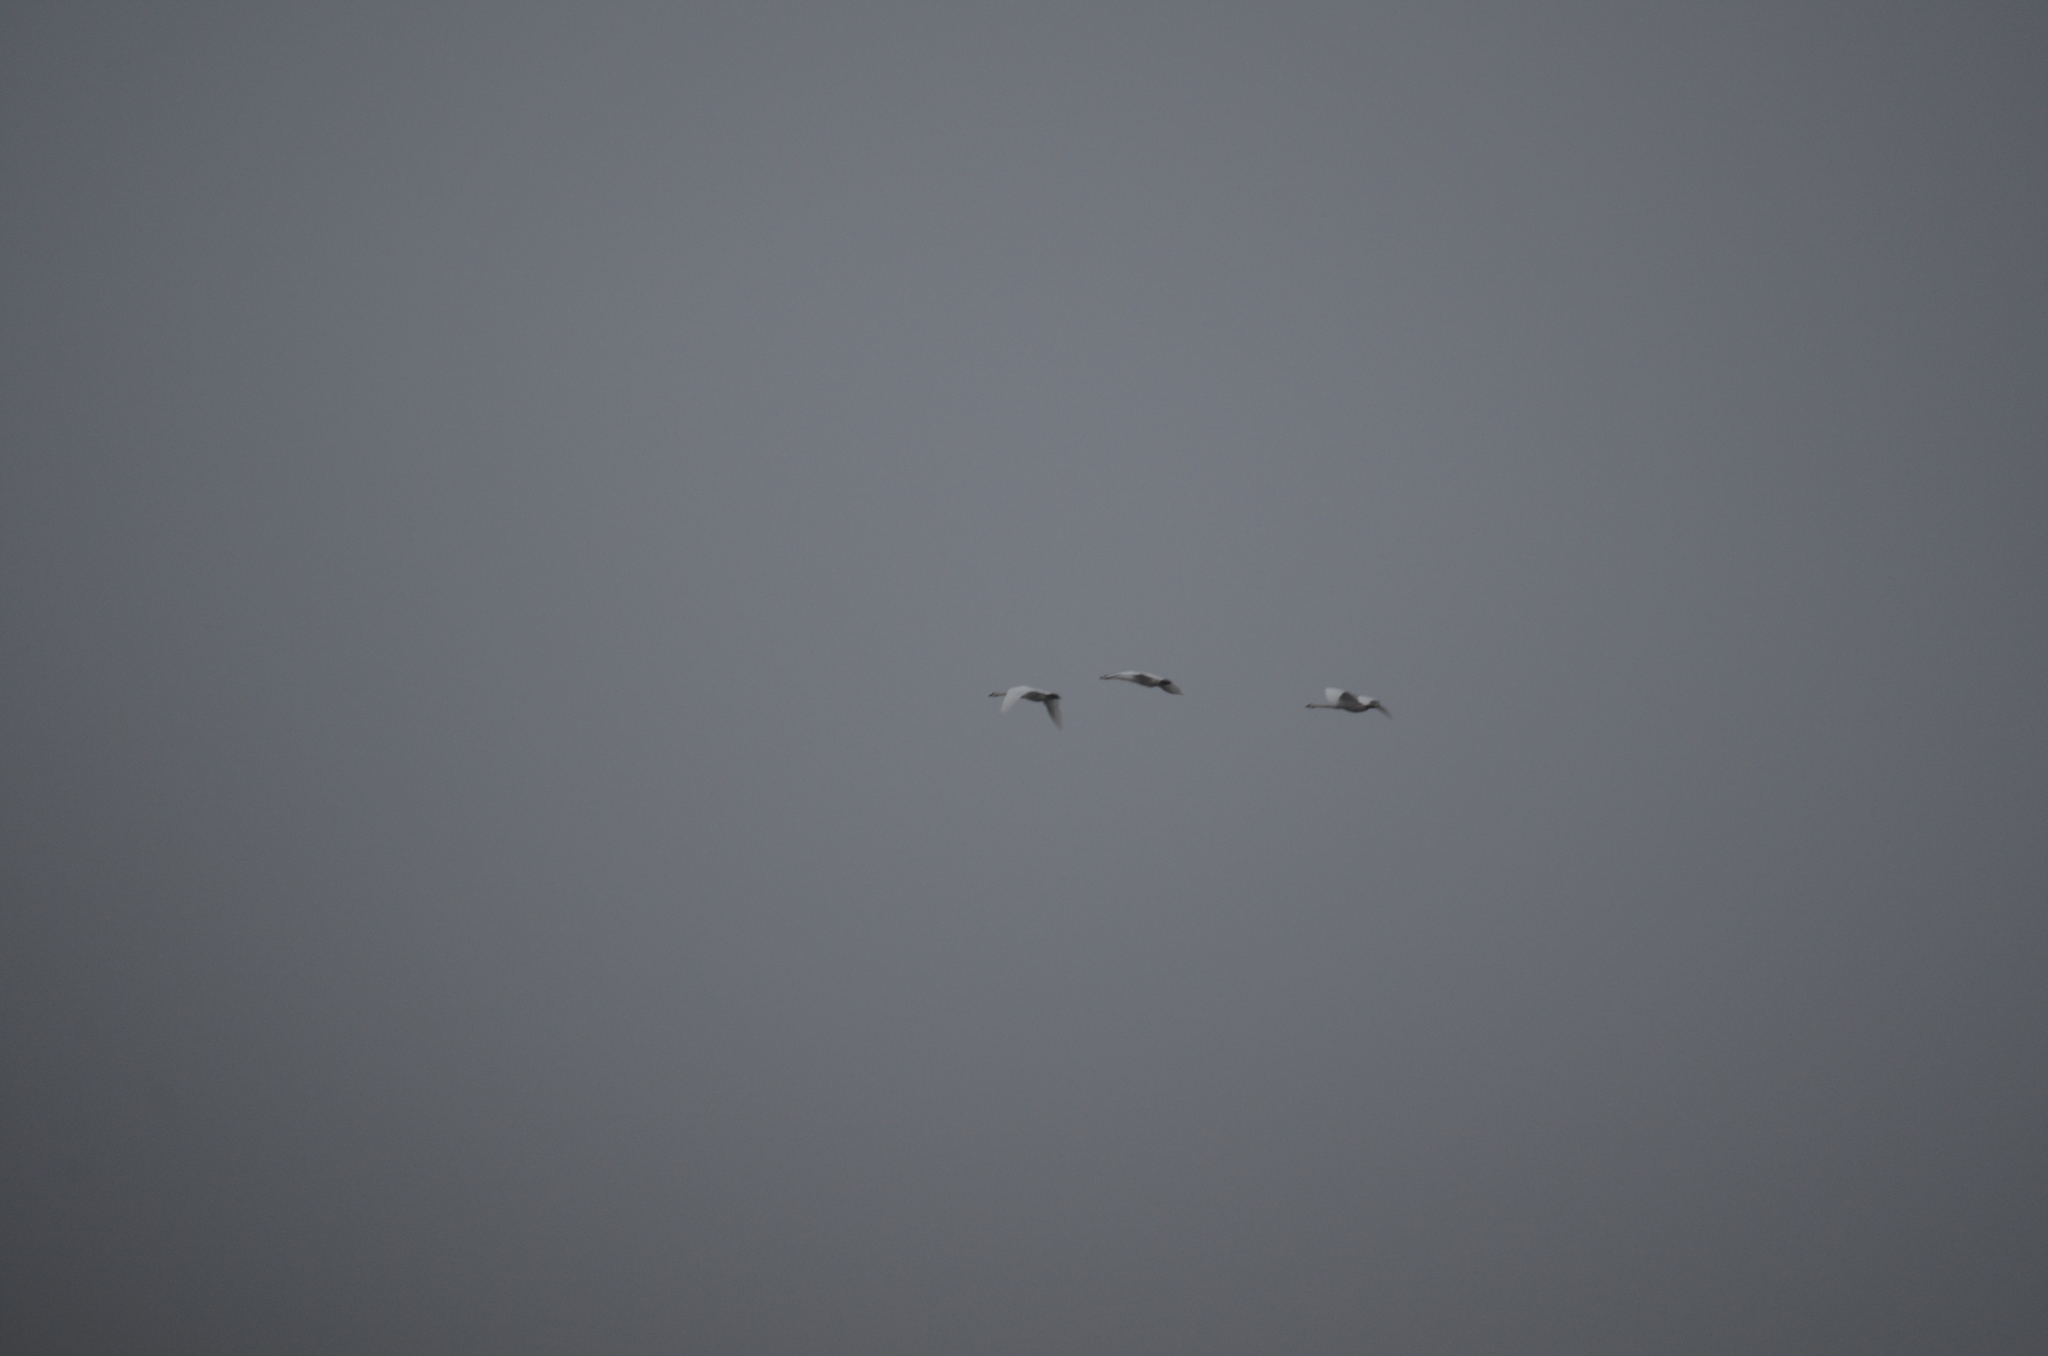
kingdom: Animalia
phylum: Chordata
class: Aves
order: Anseriformes
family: Anatidae
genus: Cygnus
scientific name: Cygnus buccinator
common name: Trumpeter swan
